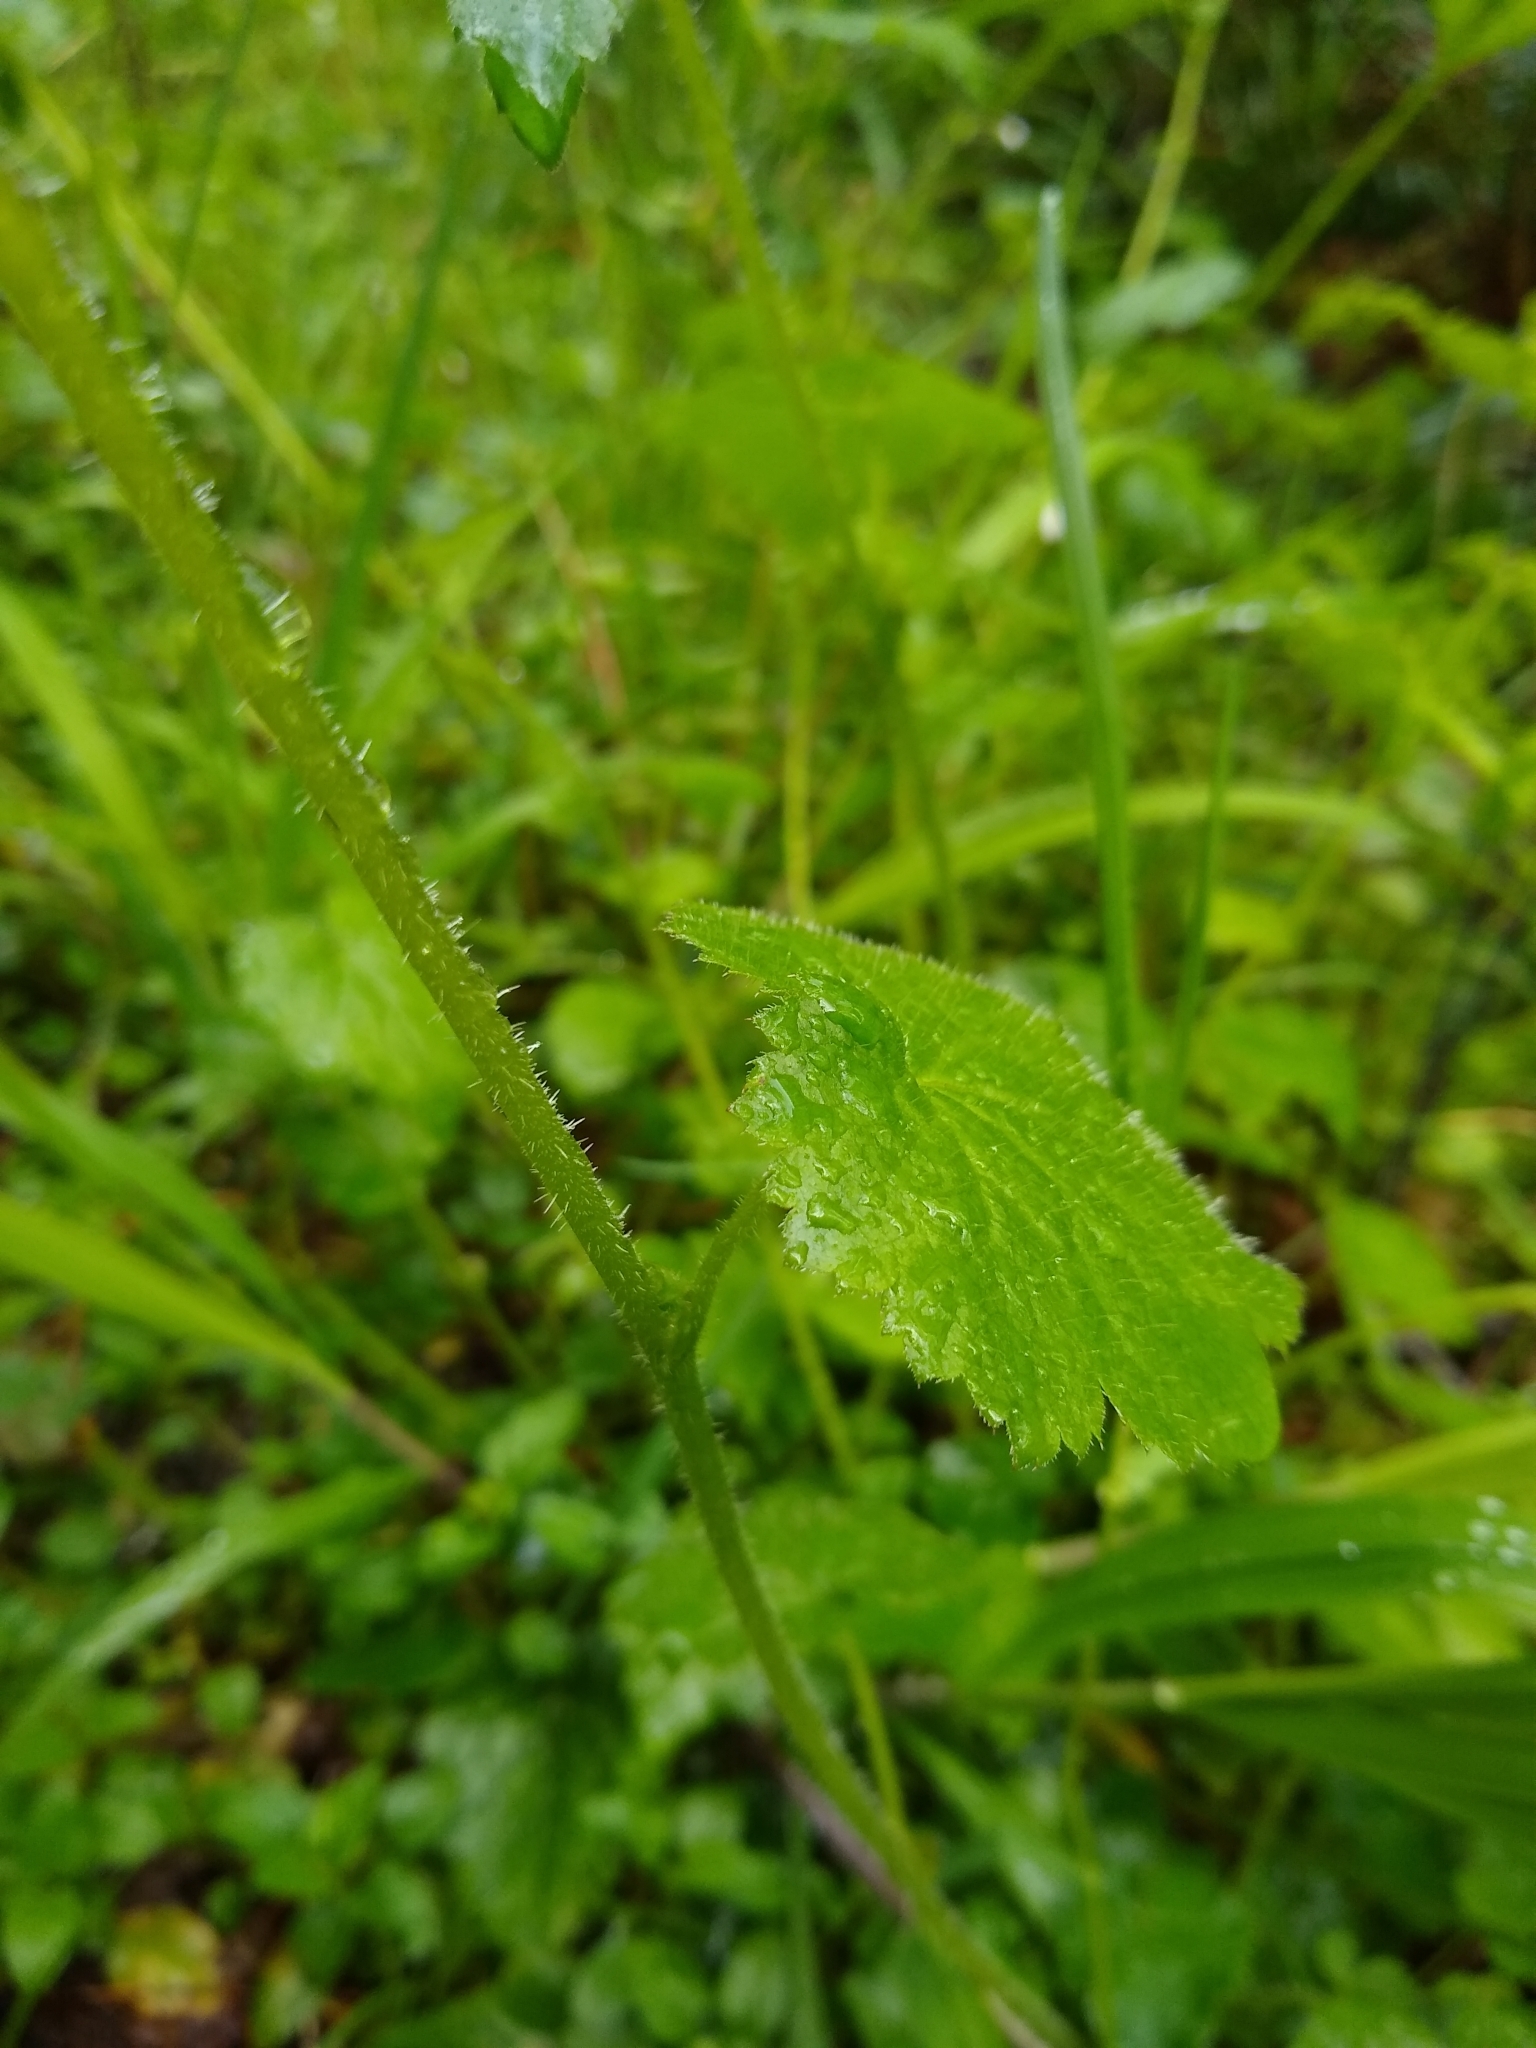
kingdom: Plantae
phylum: Tracheophyta
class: Magnoliopsida
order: Saxifragales
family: Saxifragaceae
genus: Tolmiea
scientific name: Tolmiea diplomenziesii
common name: Youth on age
